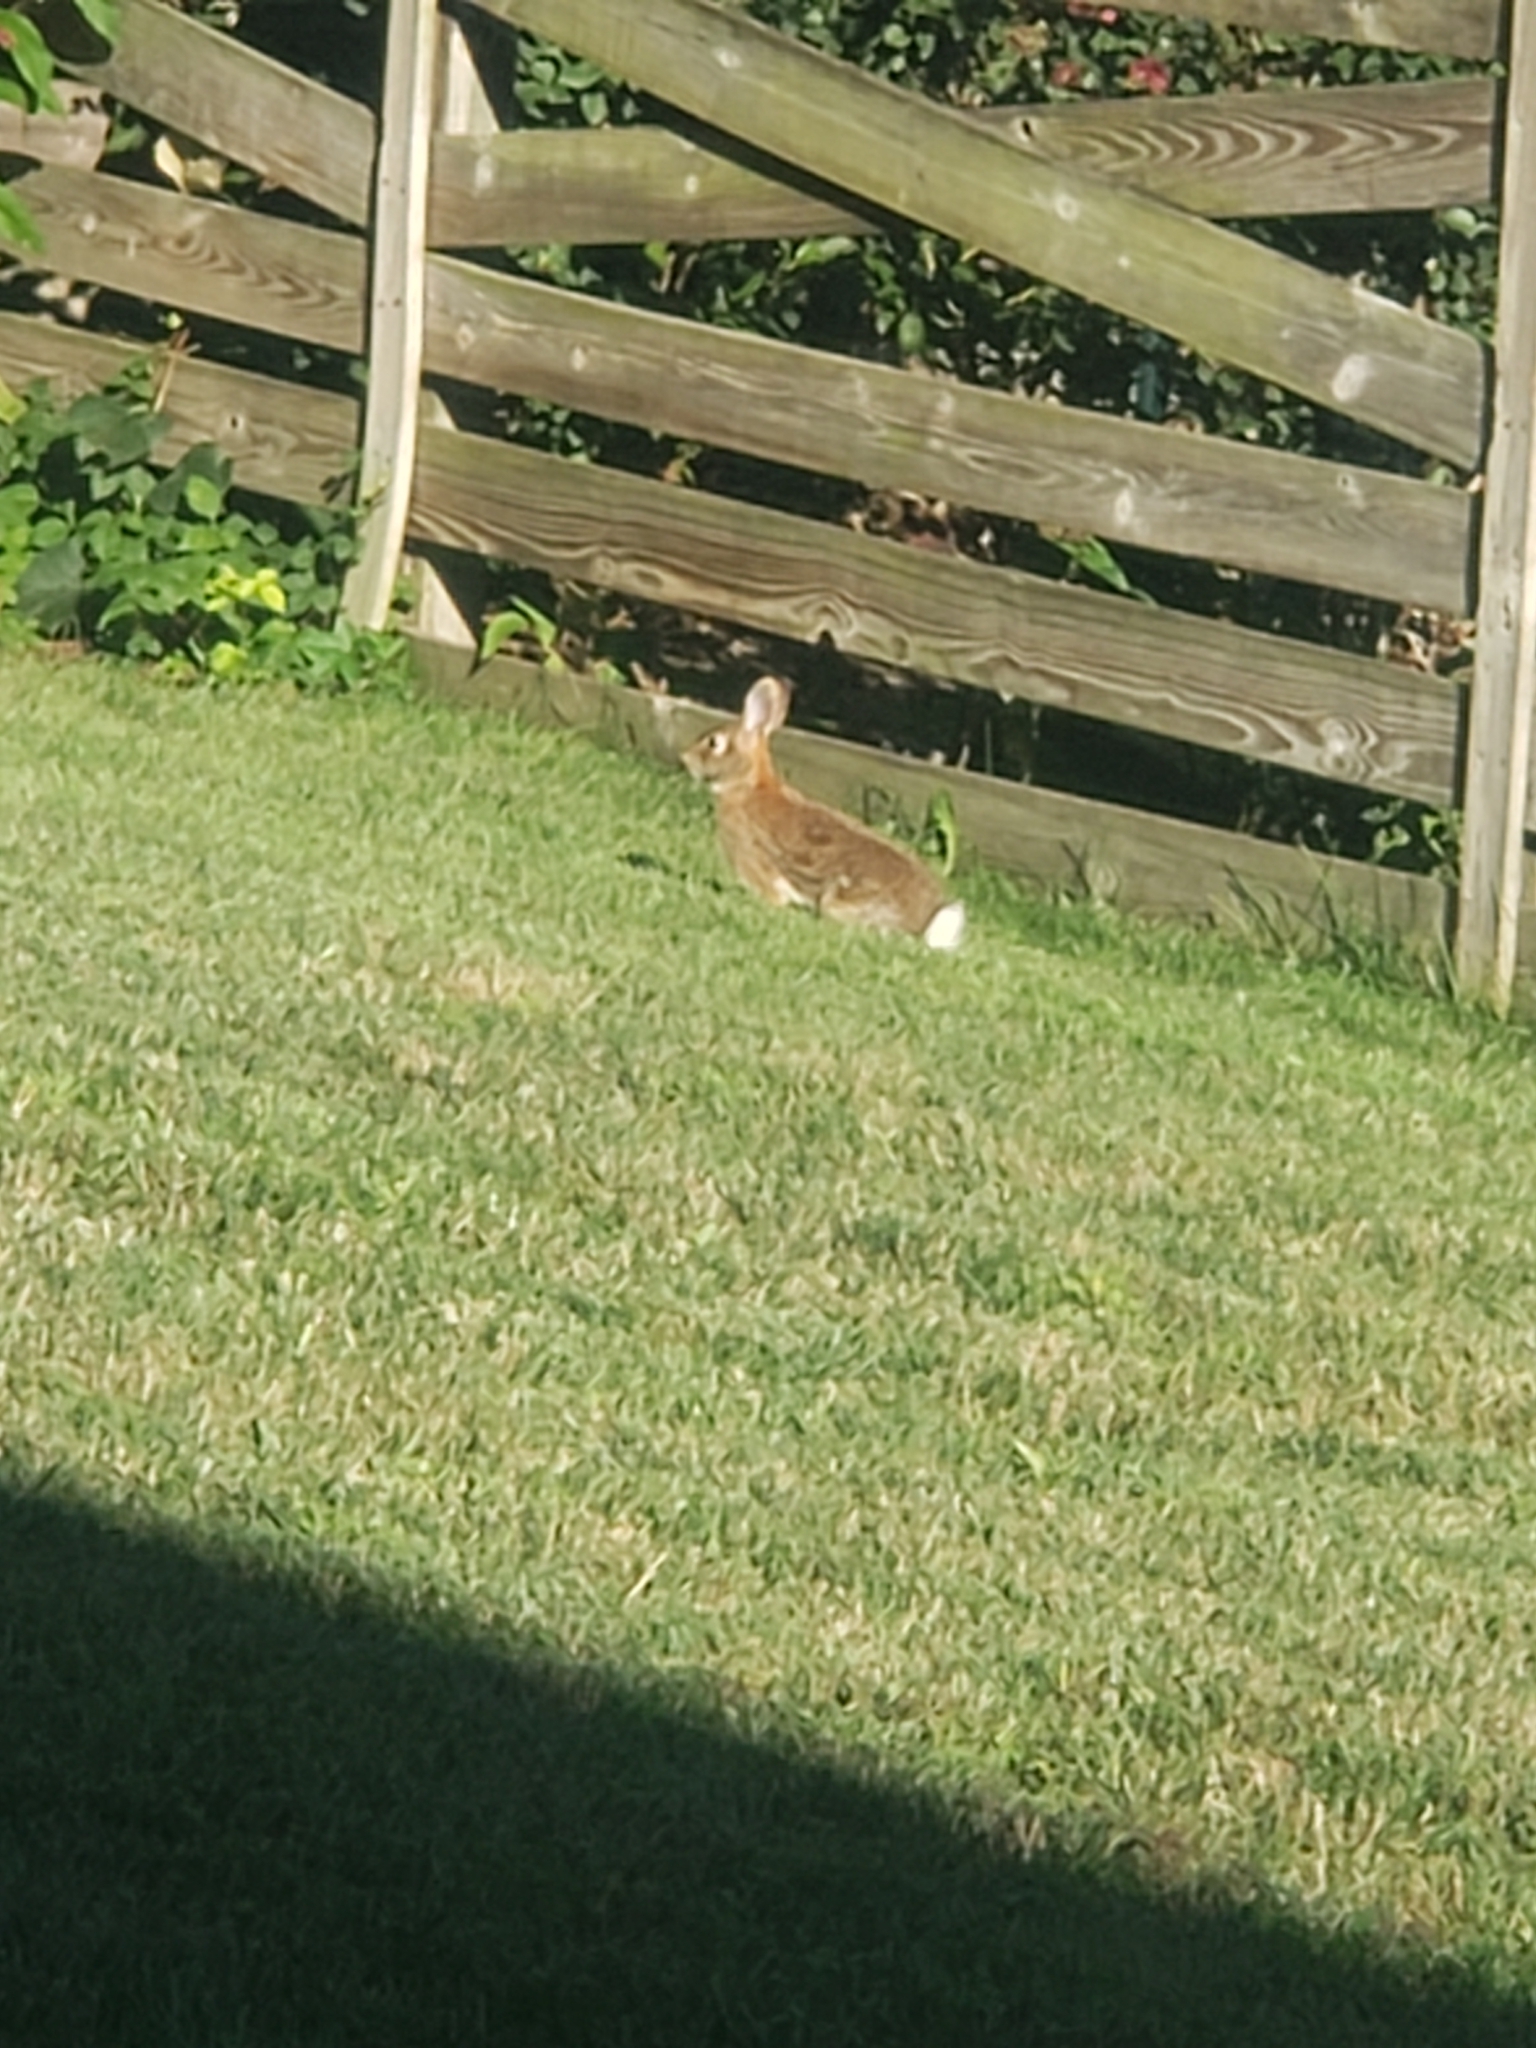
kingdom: Animalia
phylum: Chordata
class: Mammalia
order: Lagomorpha
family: Leporidae
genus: Sylvilagus
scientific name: Sylvilagus floridanus
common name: Eastern cottontail
